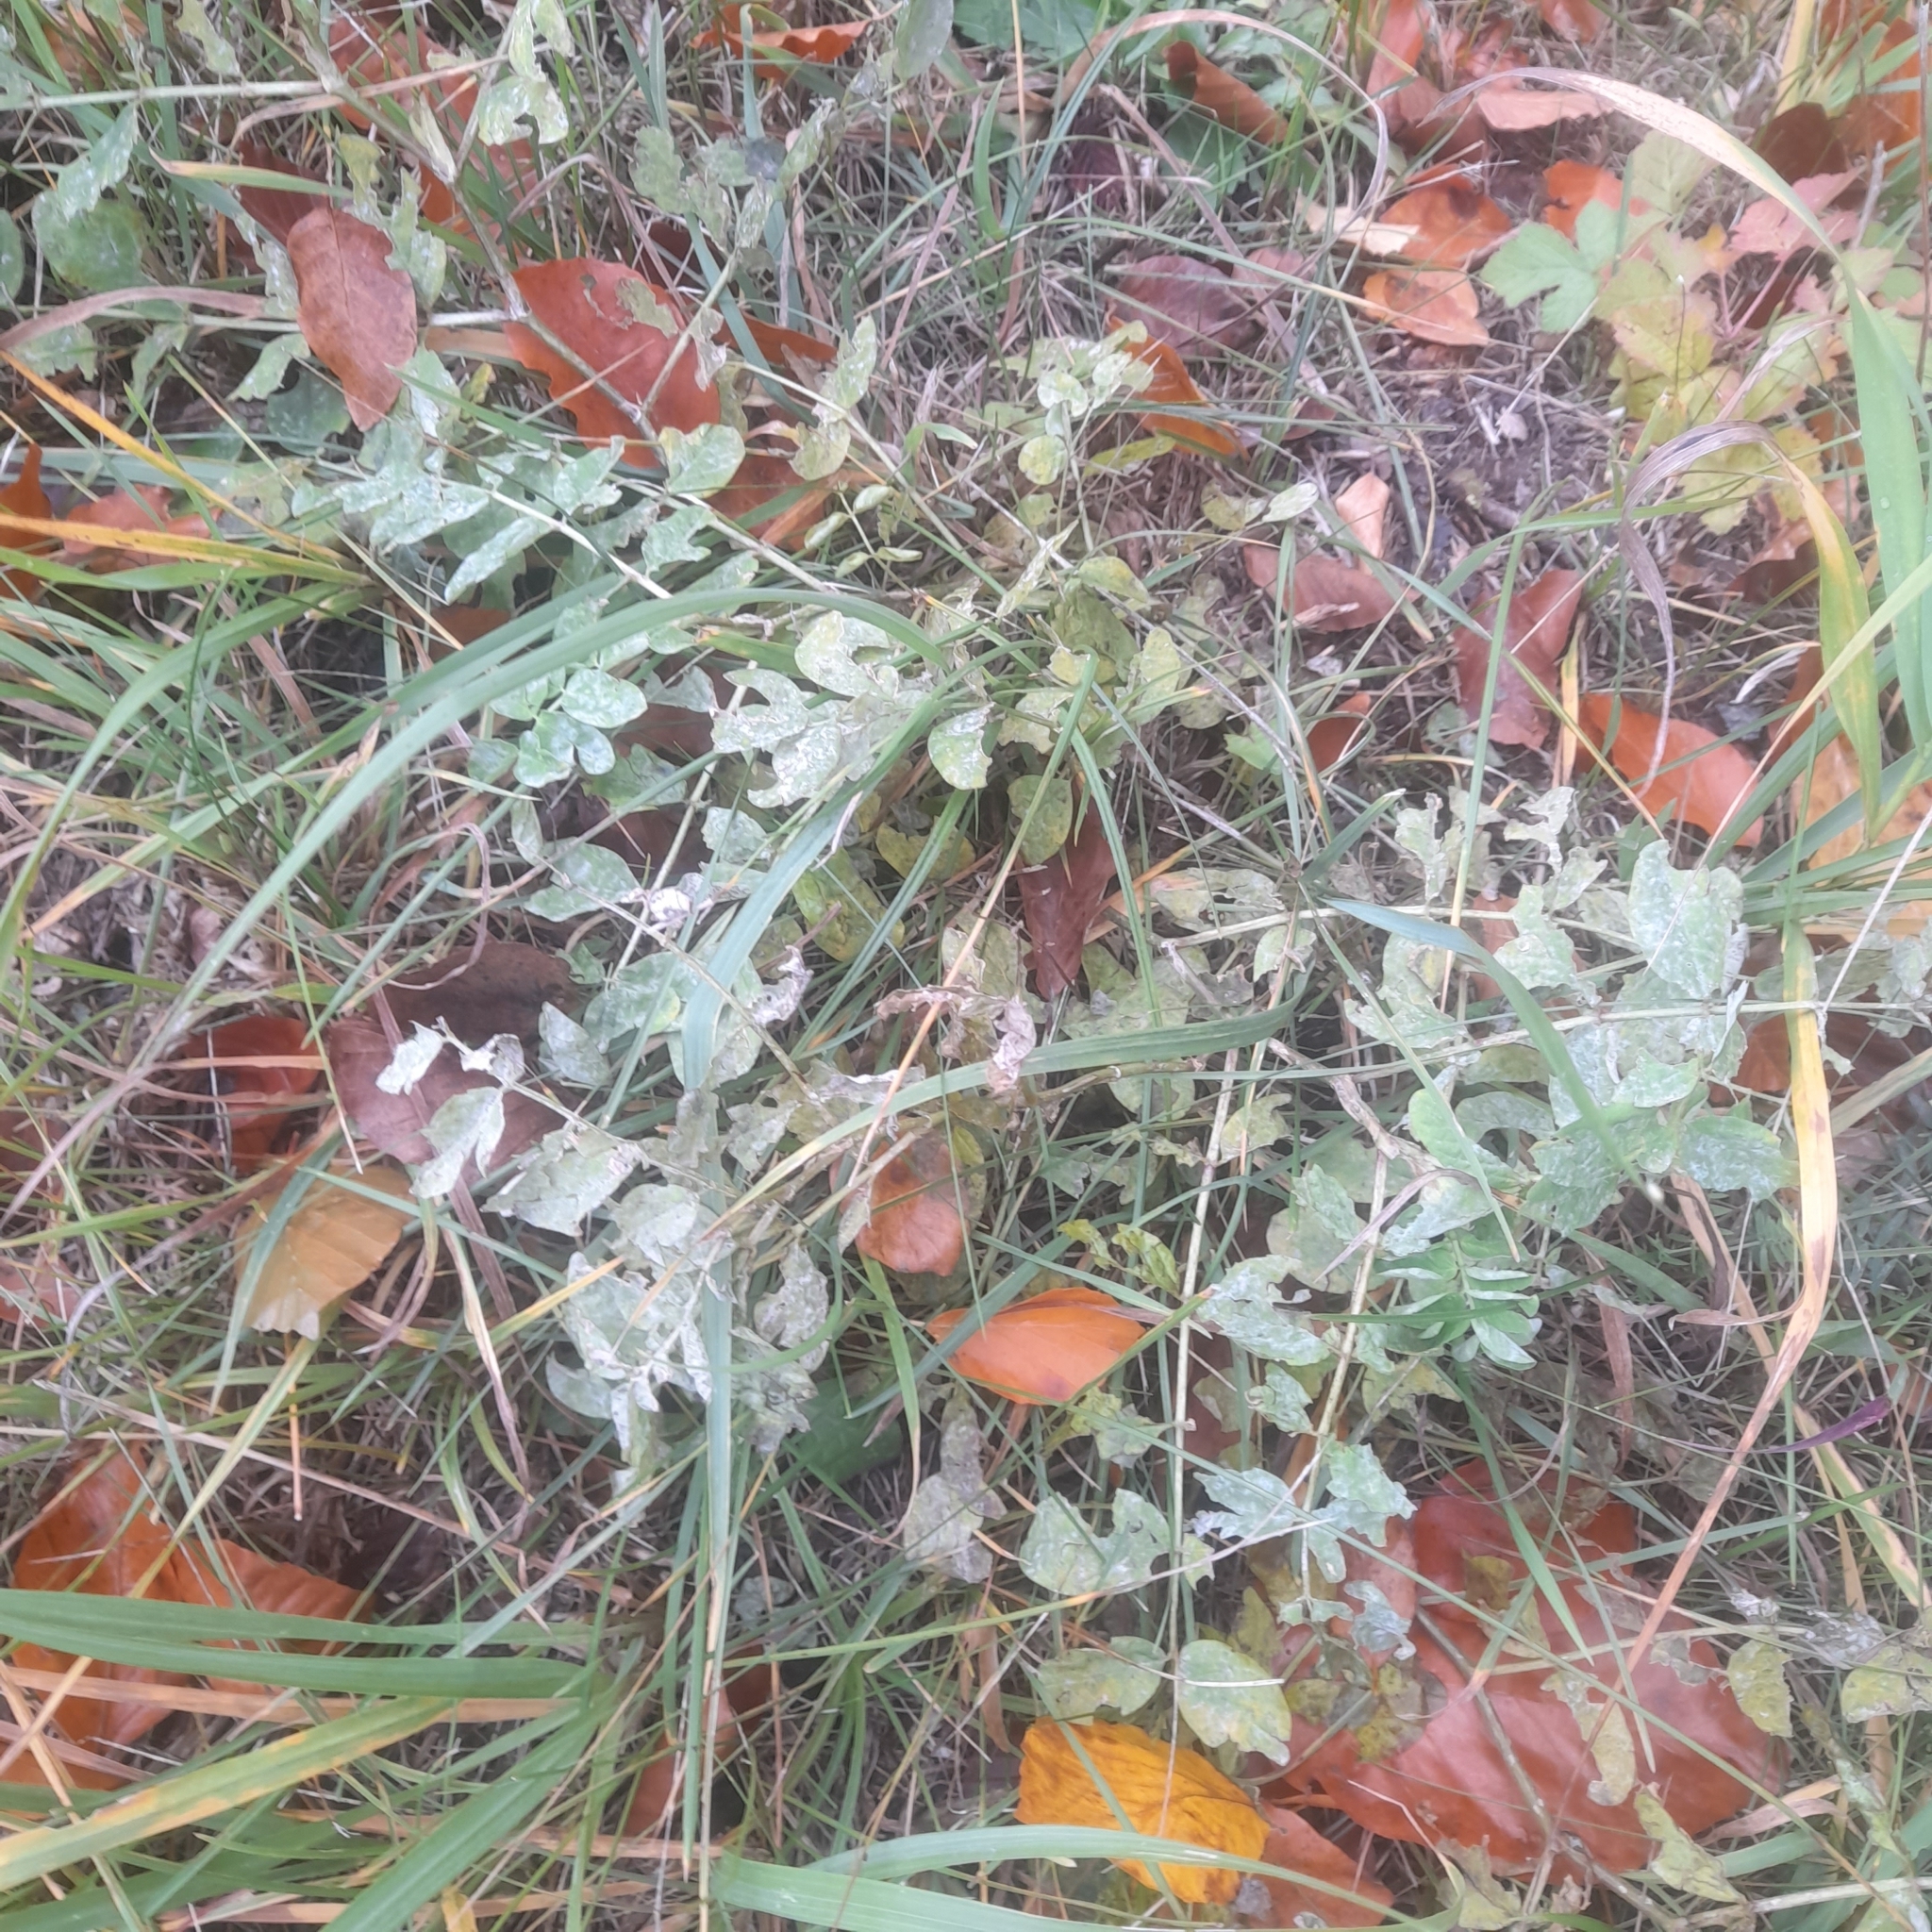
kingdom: Plantae
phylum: Tracheophyta
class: Magnoliopsida
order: Fabales
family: Fabaceae
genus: Astragalus
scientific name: Astragalus glycyphyllos
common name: Wild liquorice
